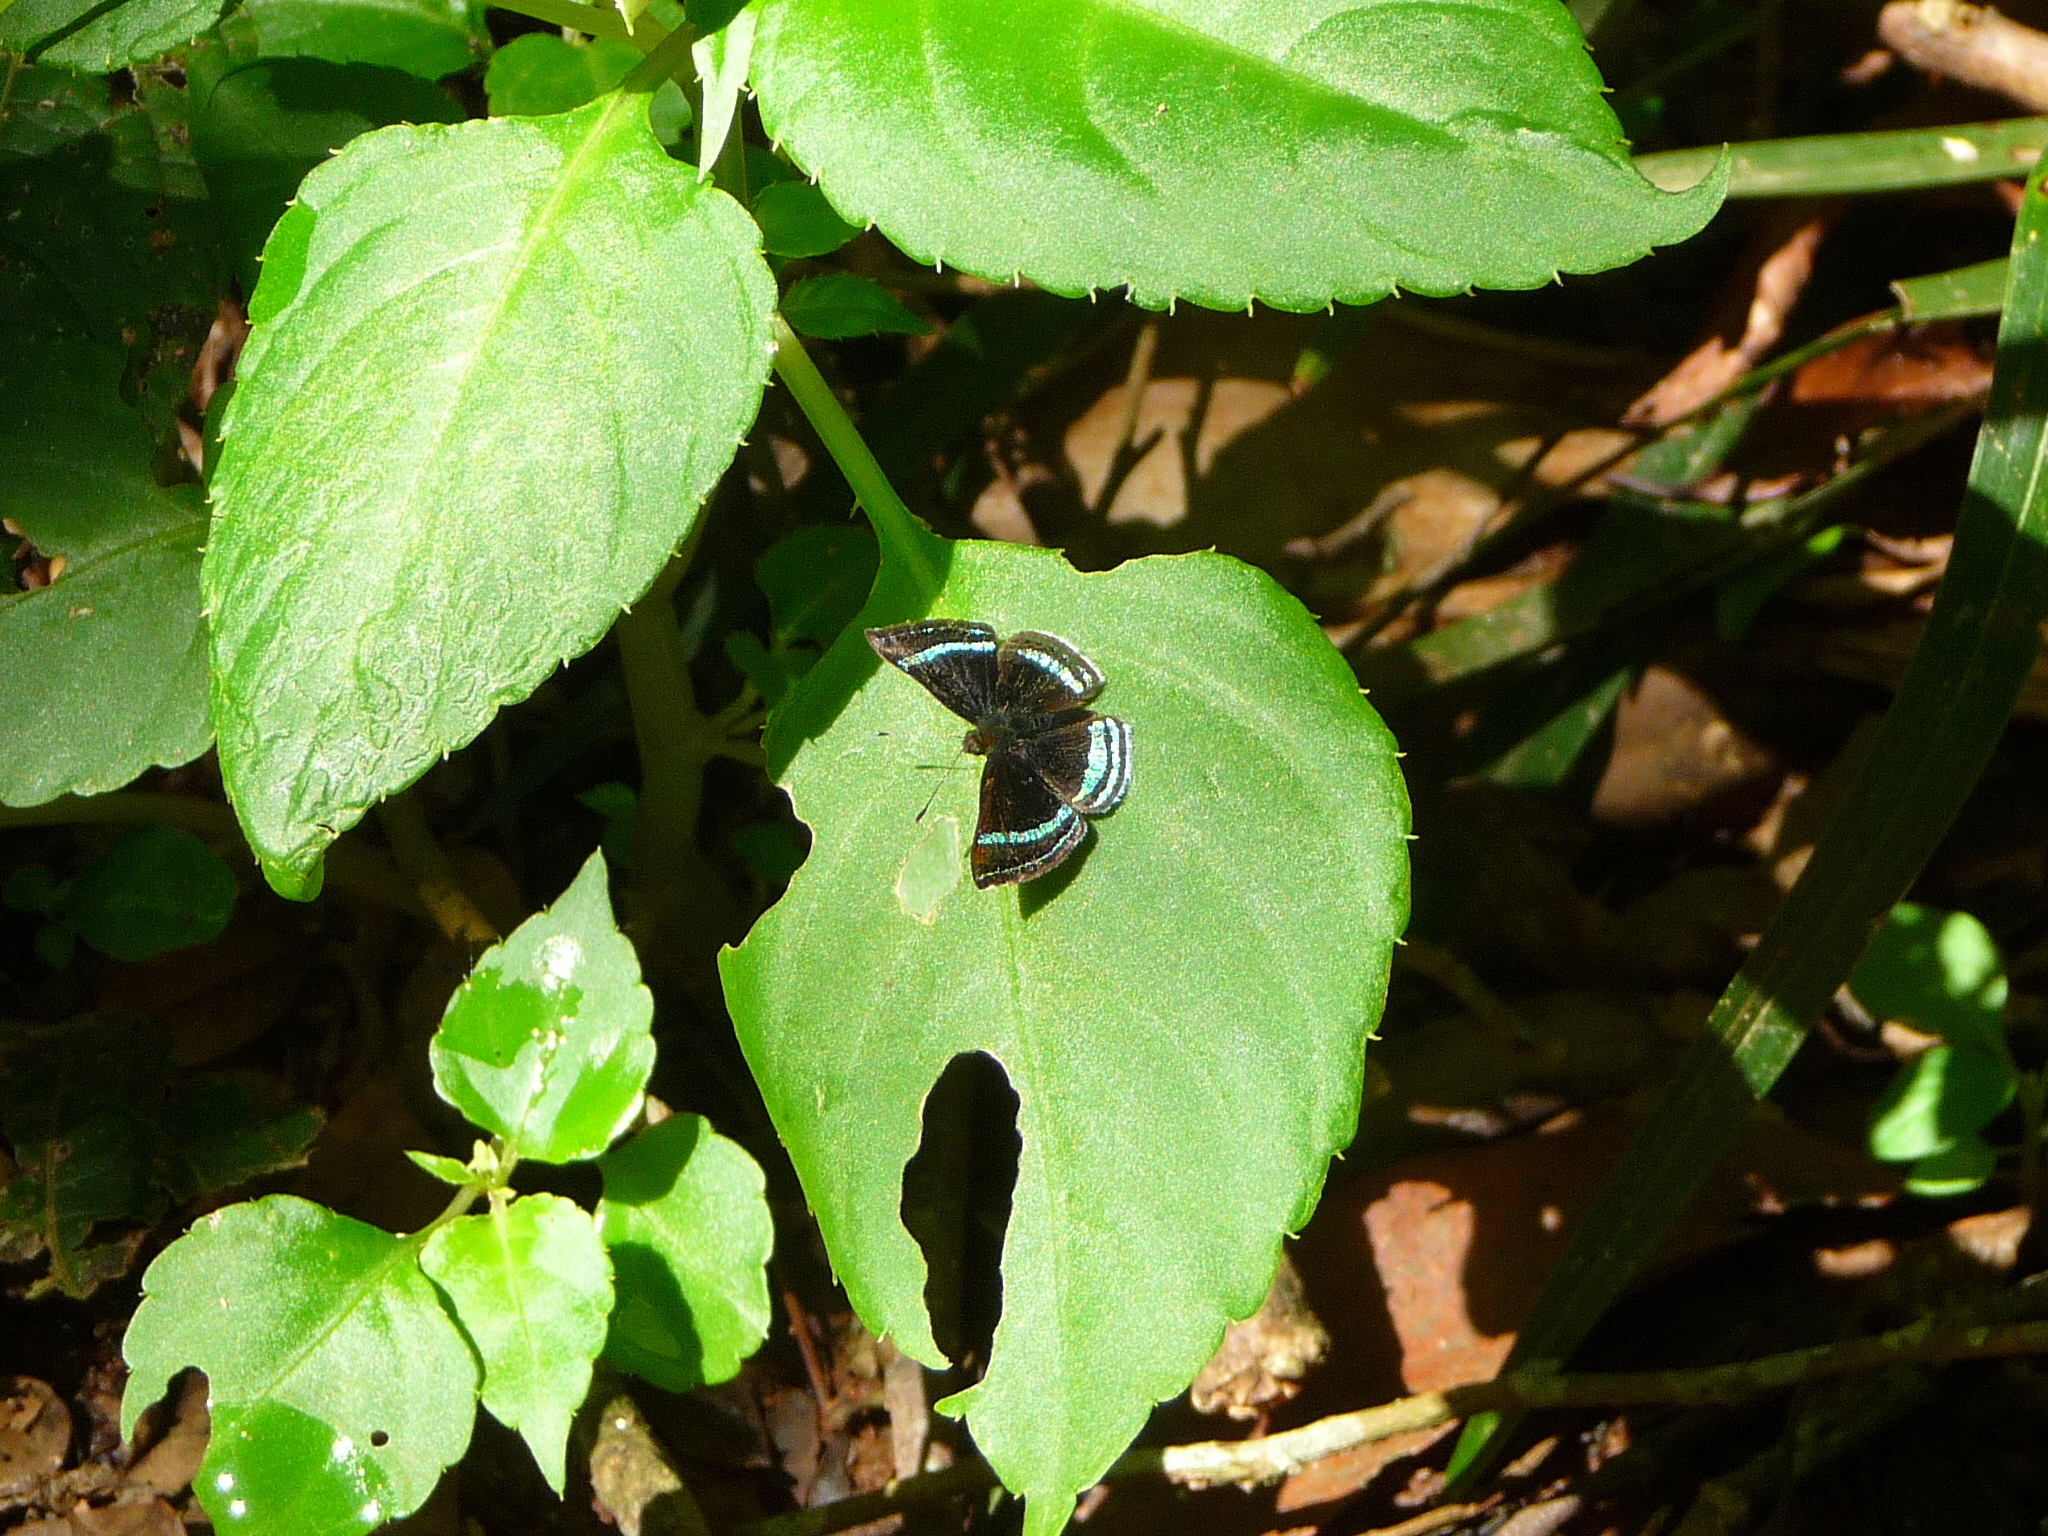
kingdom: Animalia
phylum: Arthropoda
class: Insecta
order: Lepidoptera
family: Riodinidae
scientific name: Riodinidae
